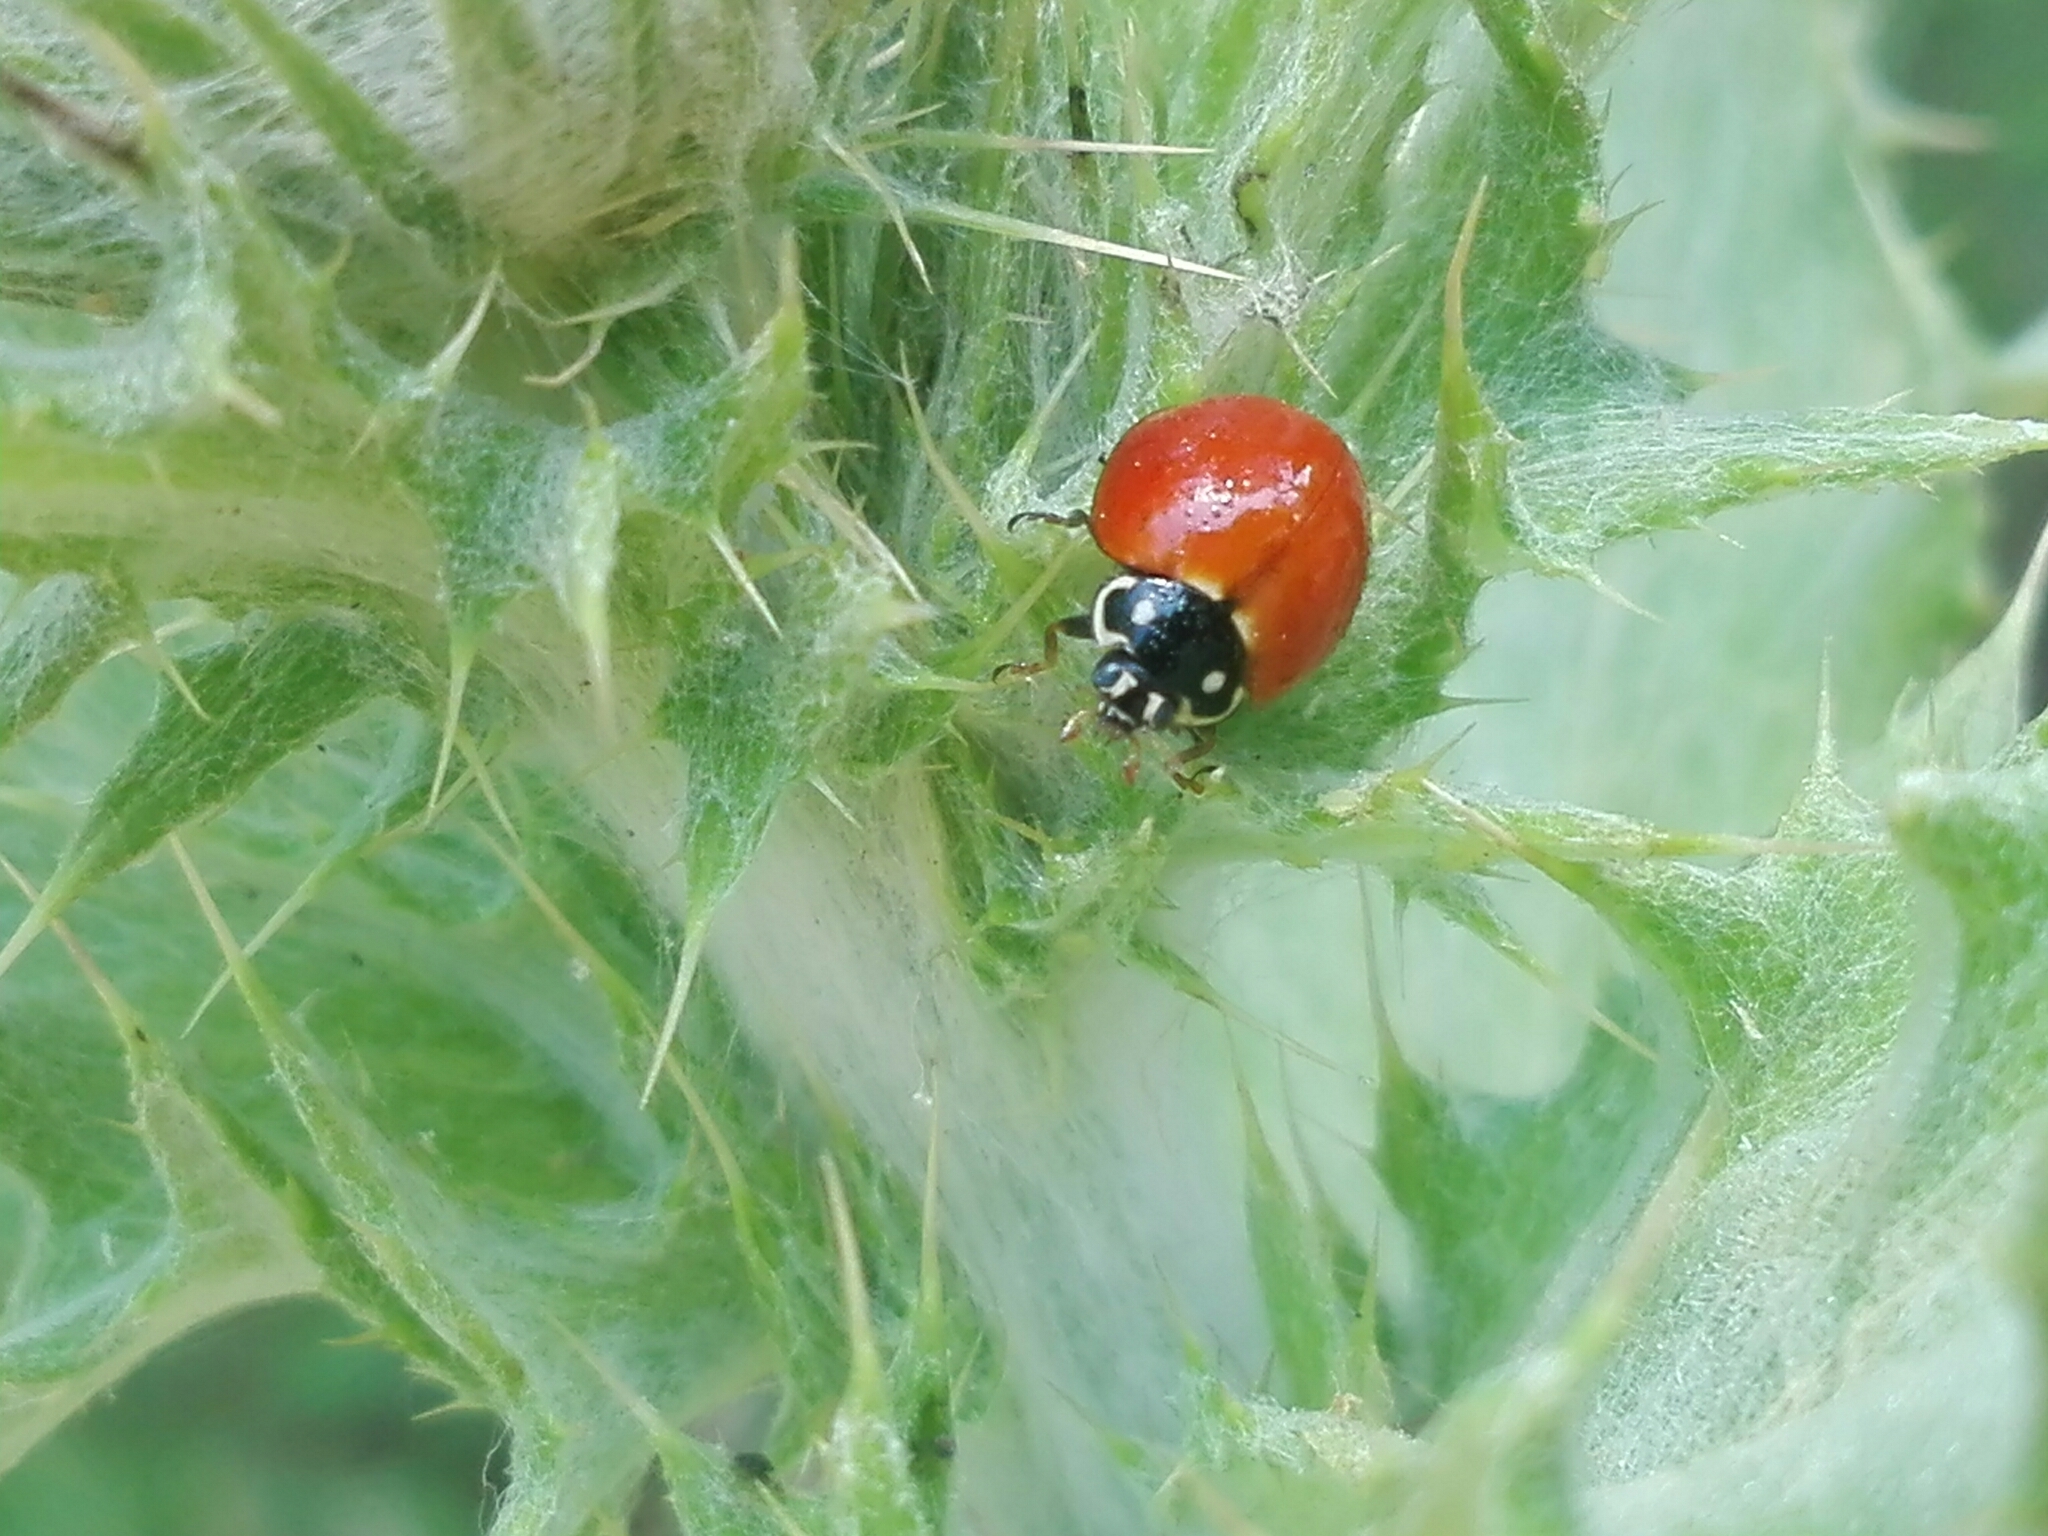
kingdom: Animalia
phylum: Arthropoda
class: Insecta
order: Coleoptera
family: Coccinellidae
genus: Cycloneda
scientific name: Cycloneda sanguinea
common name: Ladybird beetle
